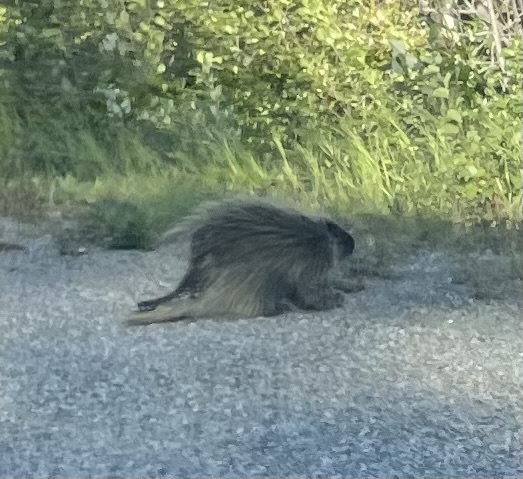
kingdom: Animalia
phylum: Chordata
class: Mammalia
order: Rodentia
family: Erethizontidae
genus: Erethizon
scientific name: Erethizon dorsatus
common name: North american porcupine
